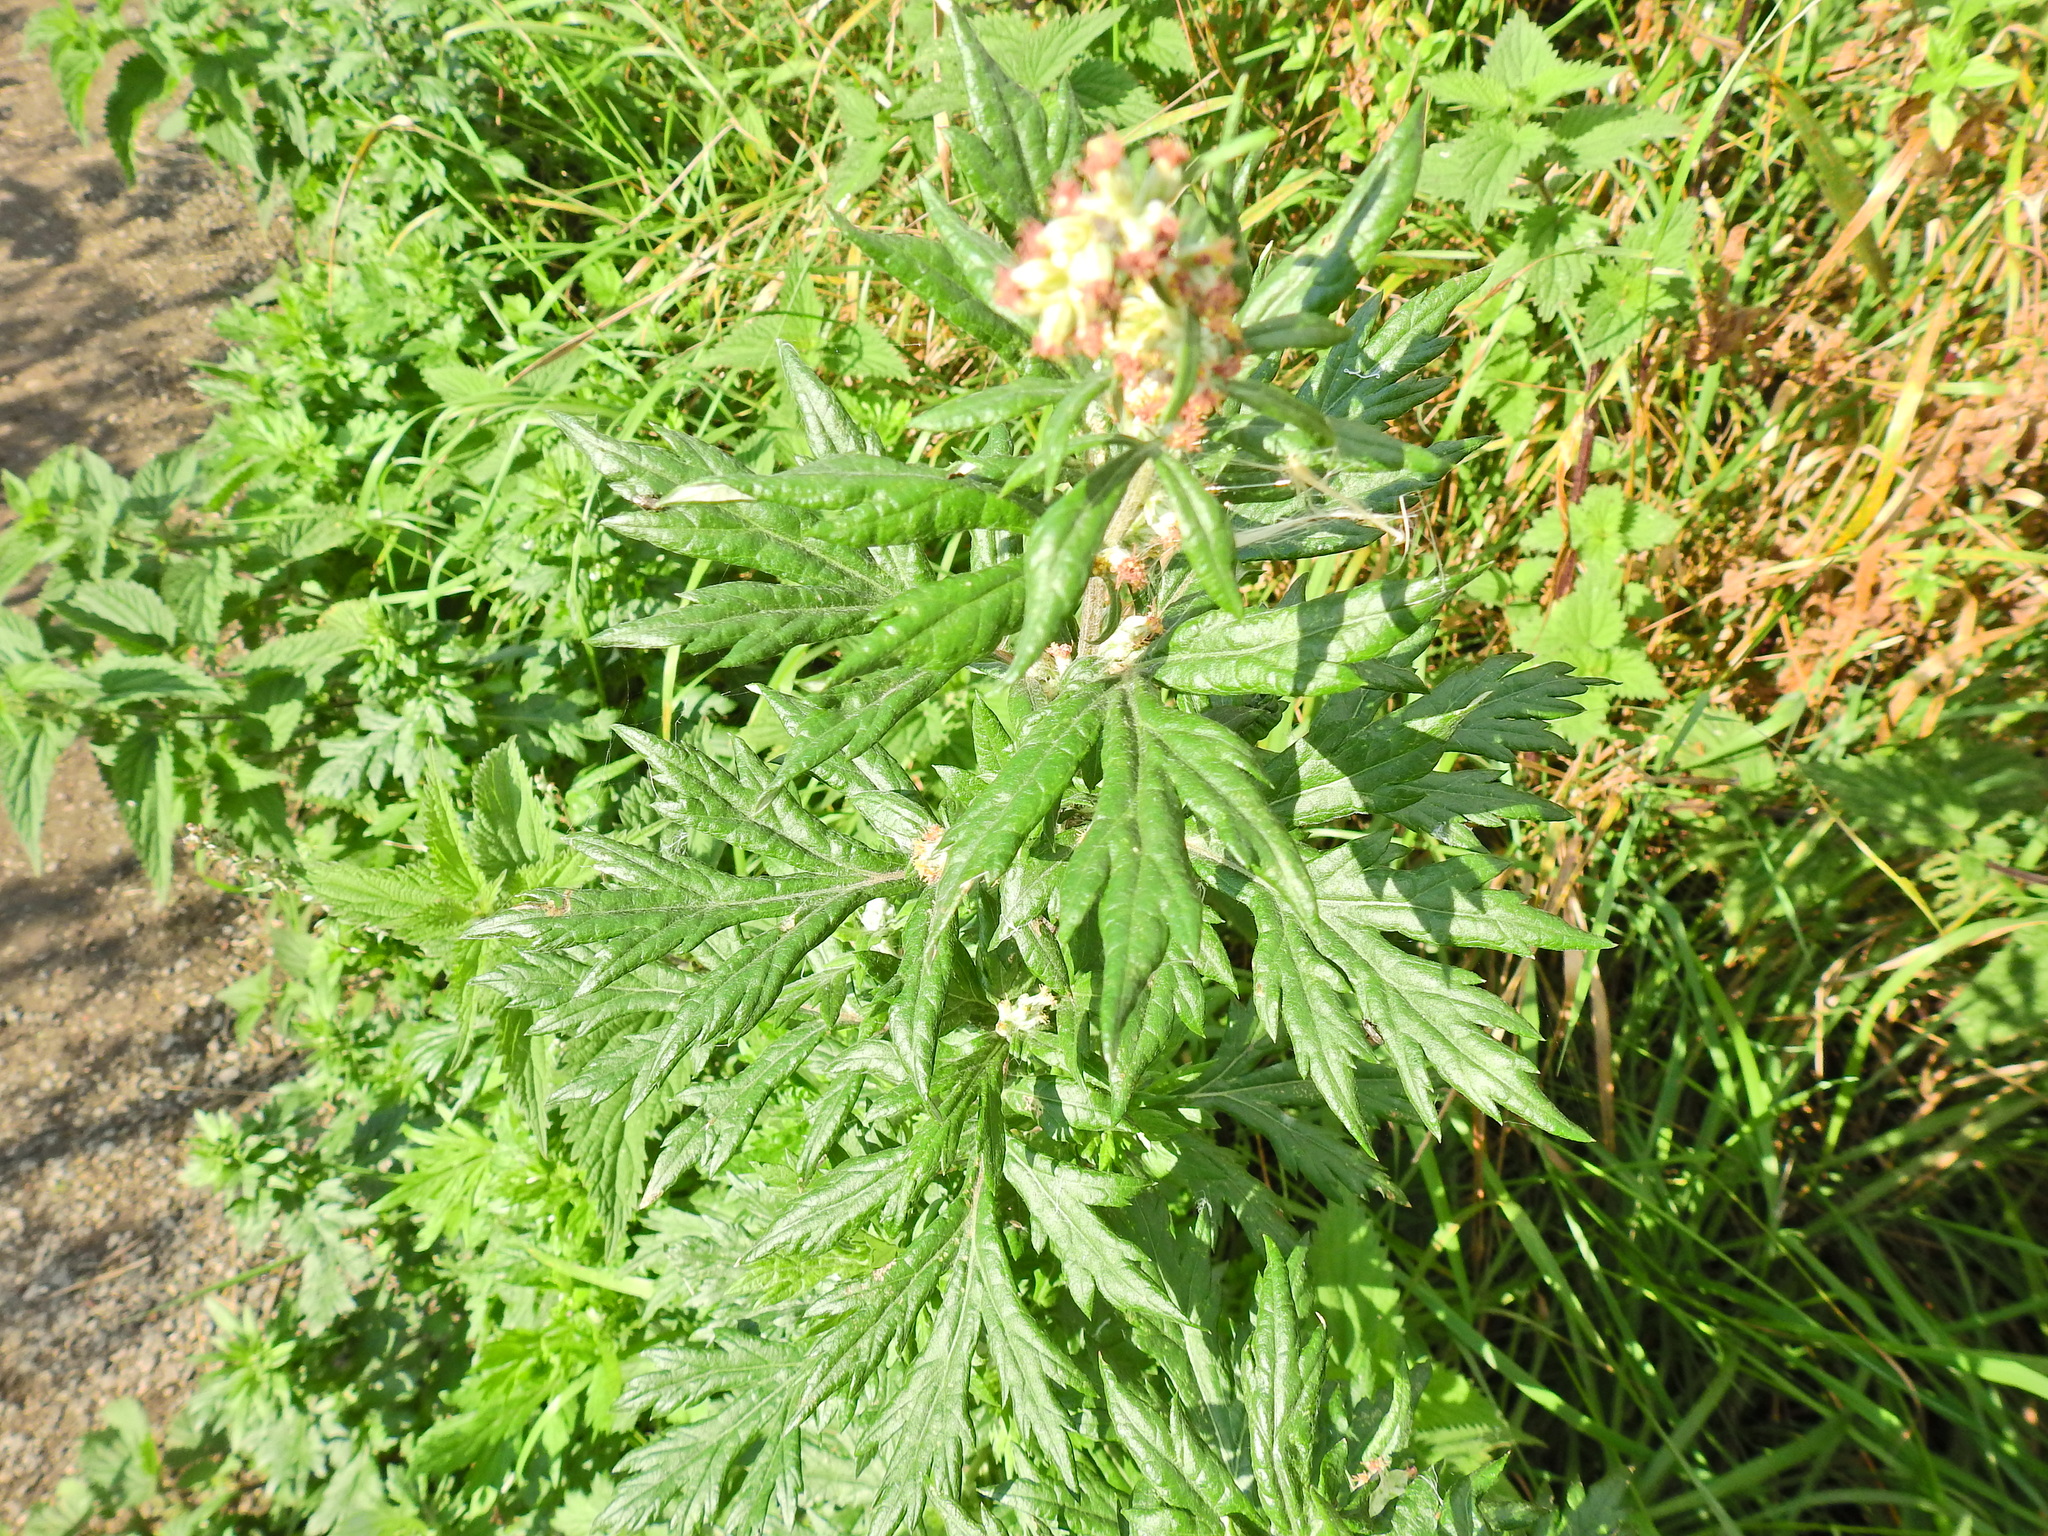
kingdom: Plantae
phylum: Tracheophyta
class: Magnoliopsida
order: Asterales
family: Asteraceae
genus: Artemisia
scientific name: Artemisia vulgaris
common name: Mugwort
